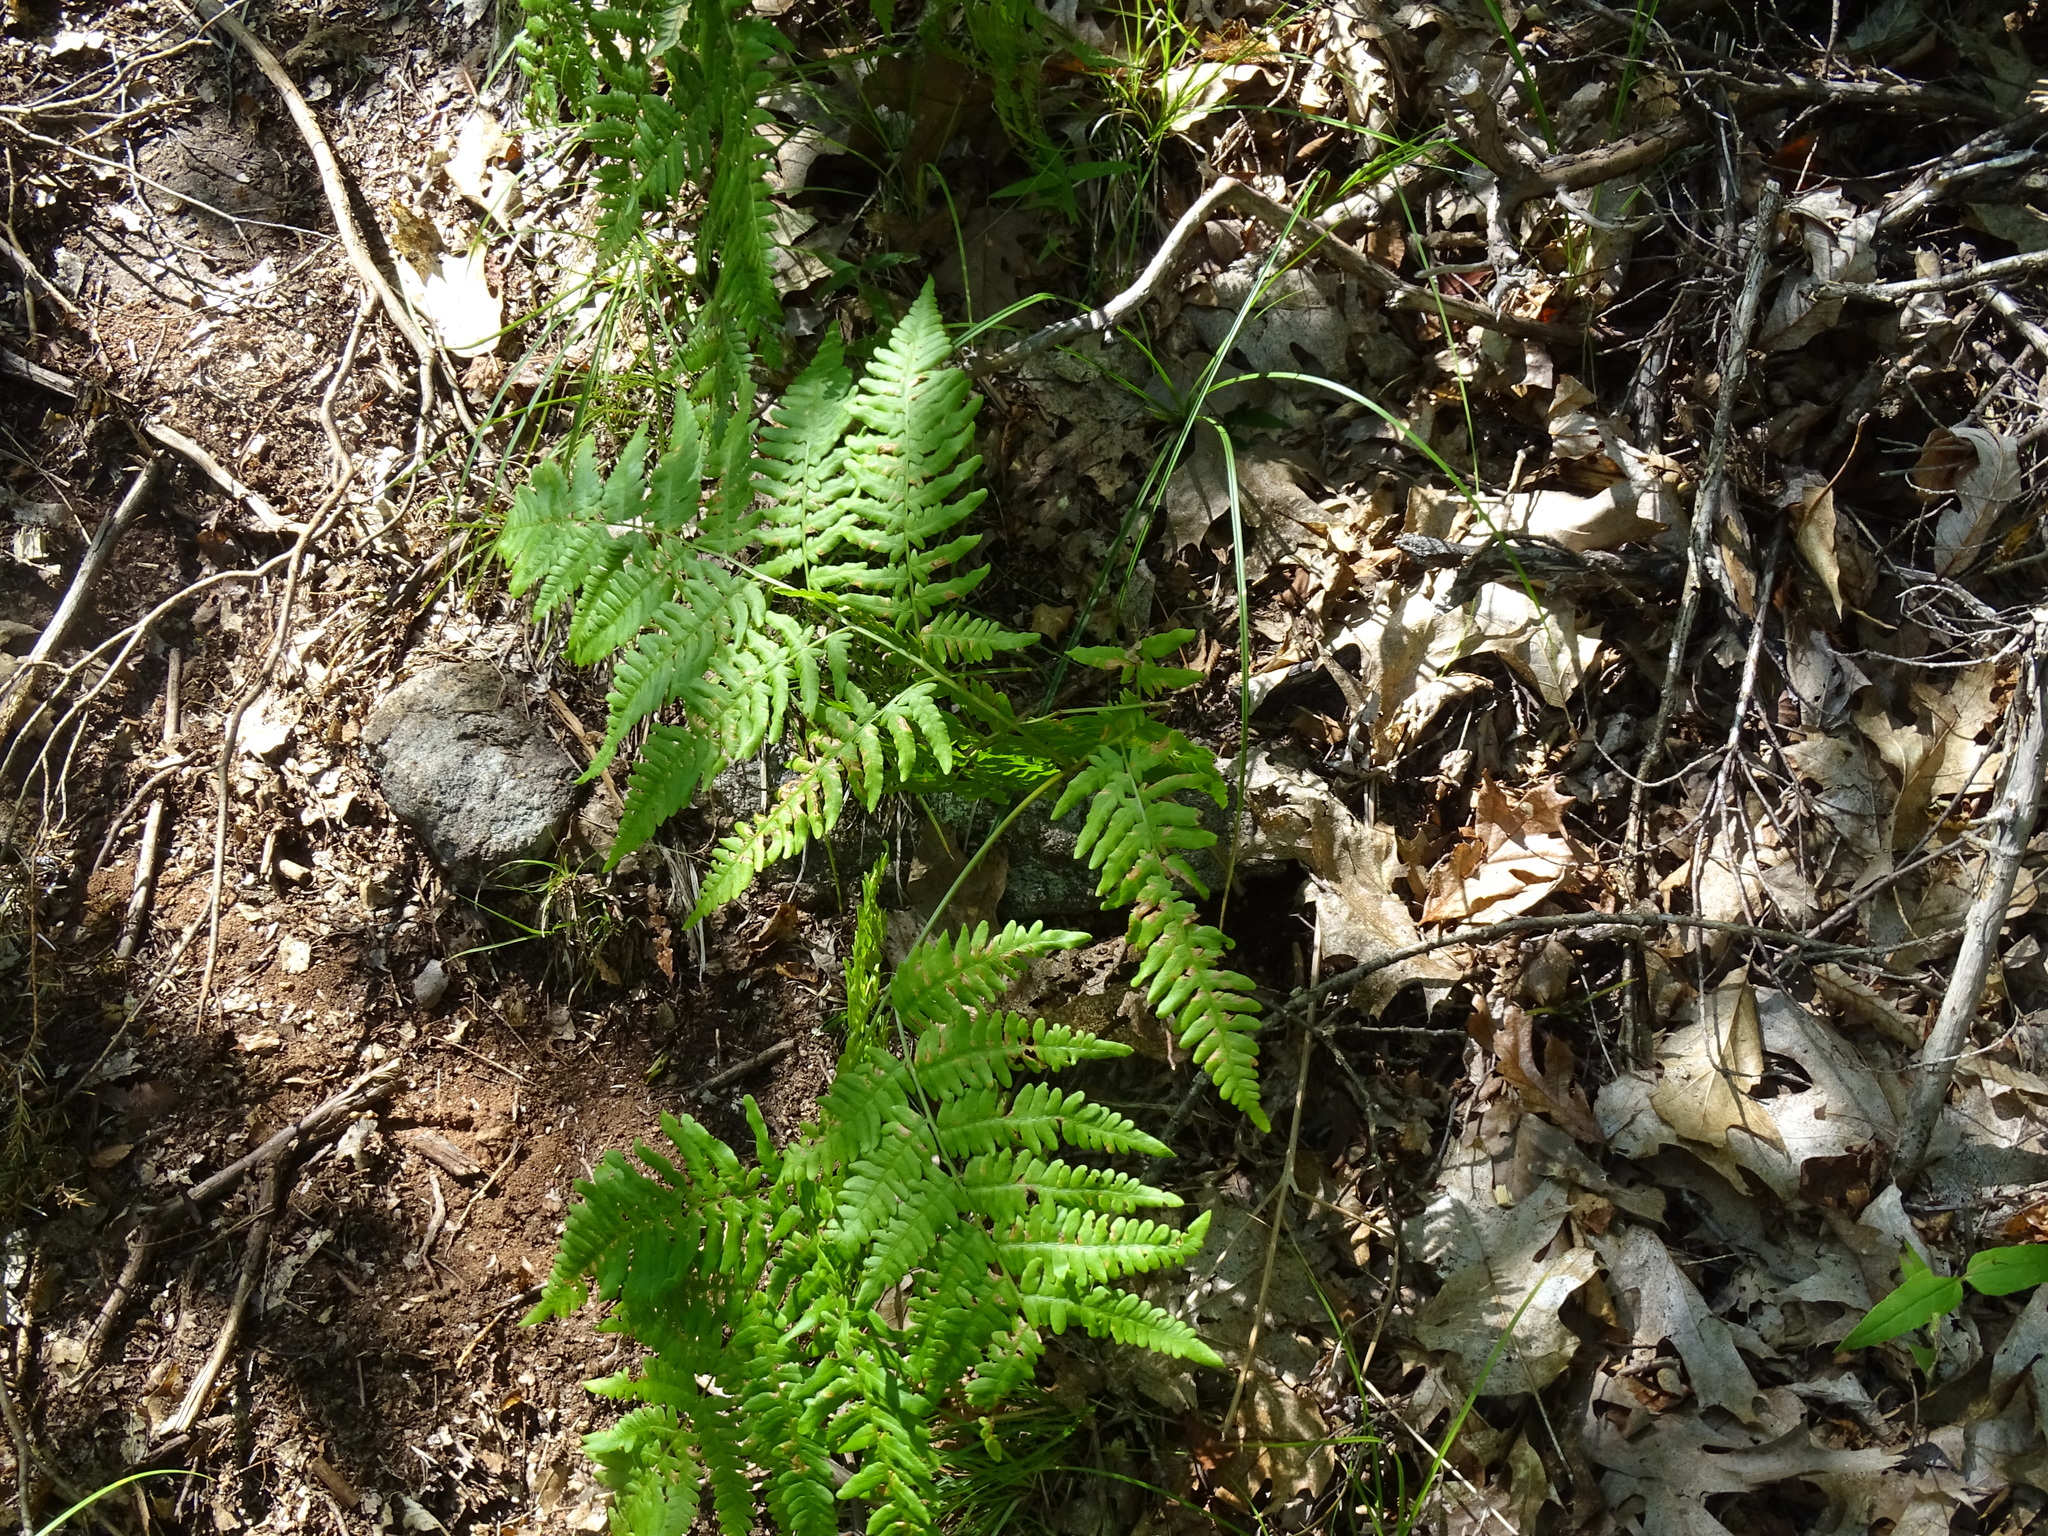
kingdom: Plantae
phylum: Tracheophyta
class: Polypodiopsida
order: Polypodiales
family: Dennstaedtiaceae
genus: Pteridium
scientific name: Pteridium aquilinum
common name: Bracken
